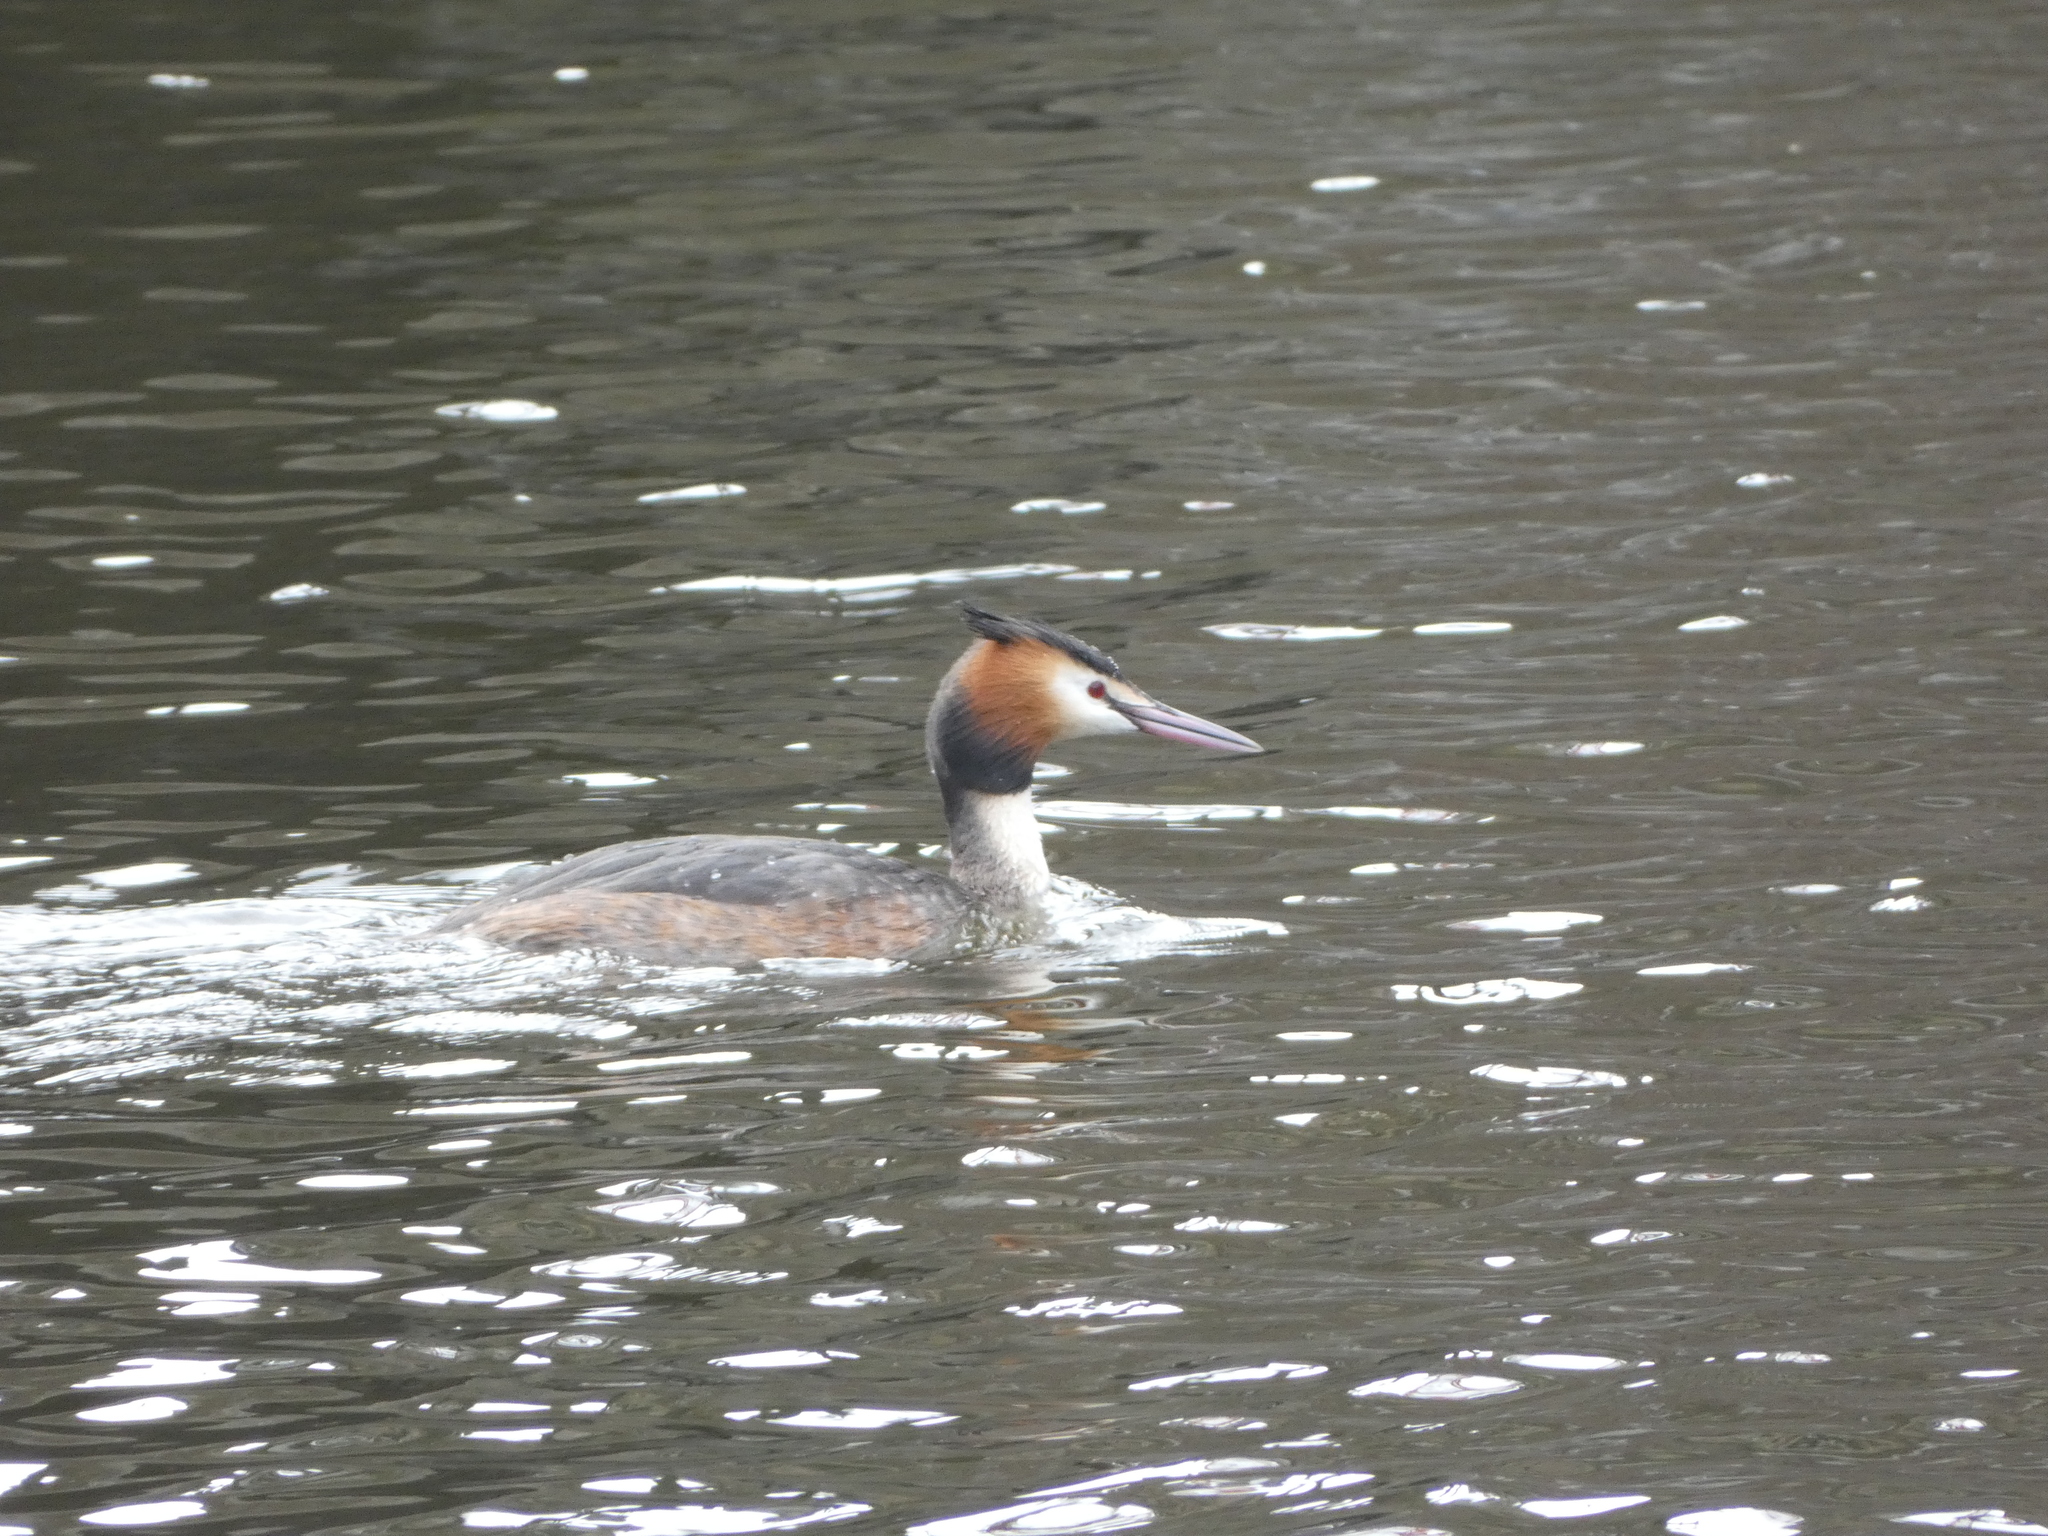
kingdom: Animalia
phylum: Chordata
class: Aves
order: Podicipediformes
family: Podicipedidae
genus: Podiceps
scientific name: Podiceps cristatus
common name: Great crested grebe
